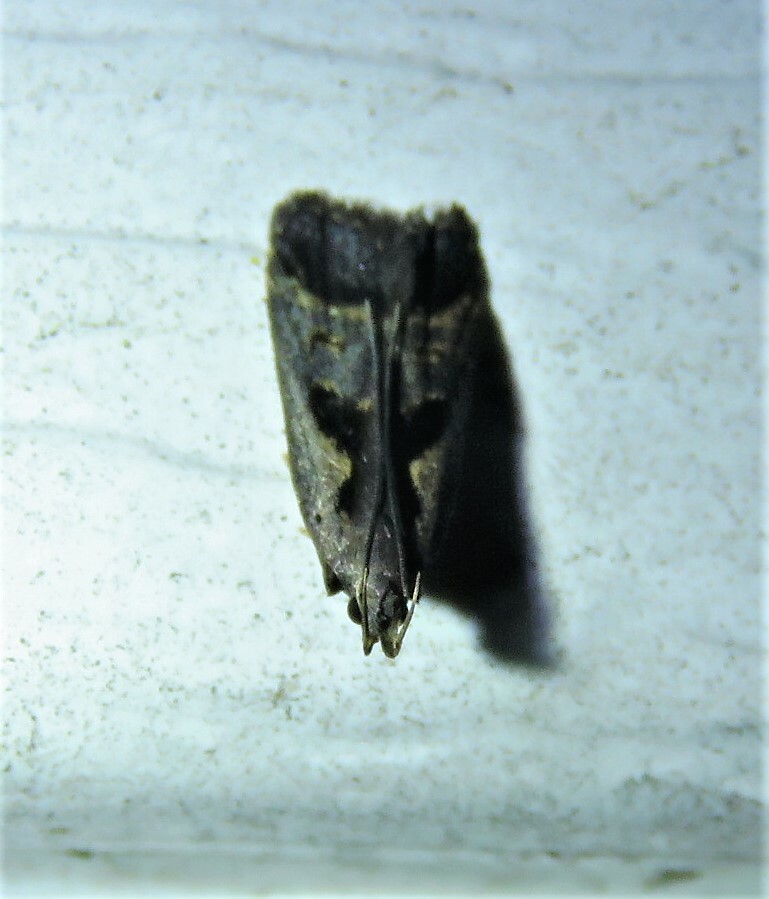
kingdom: Animalia
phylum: Arthropoda
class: Insecta
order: Lepidoptera
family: Gelechiidae
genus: Dichomeris
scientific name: Dichomeris bilobella
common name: Bilobed dichomeris moth
